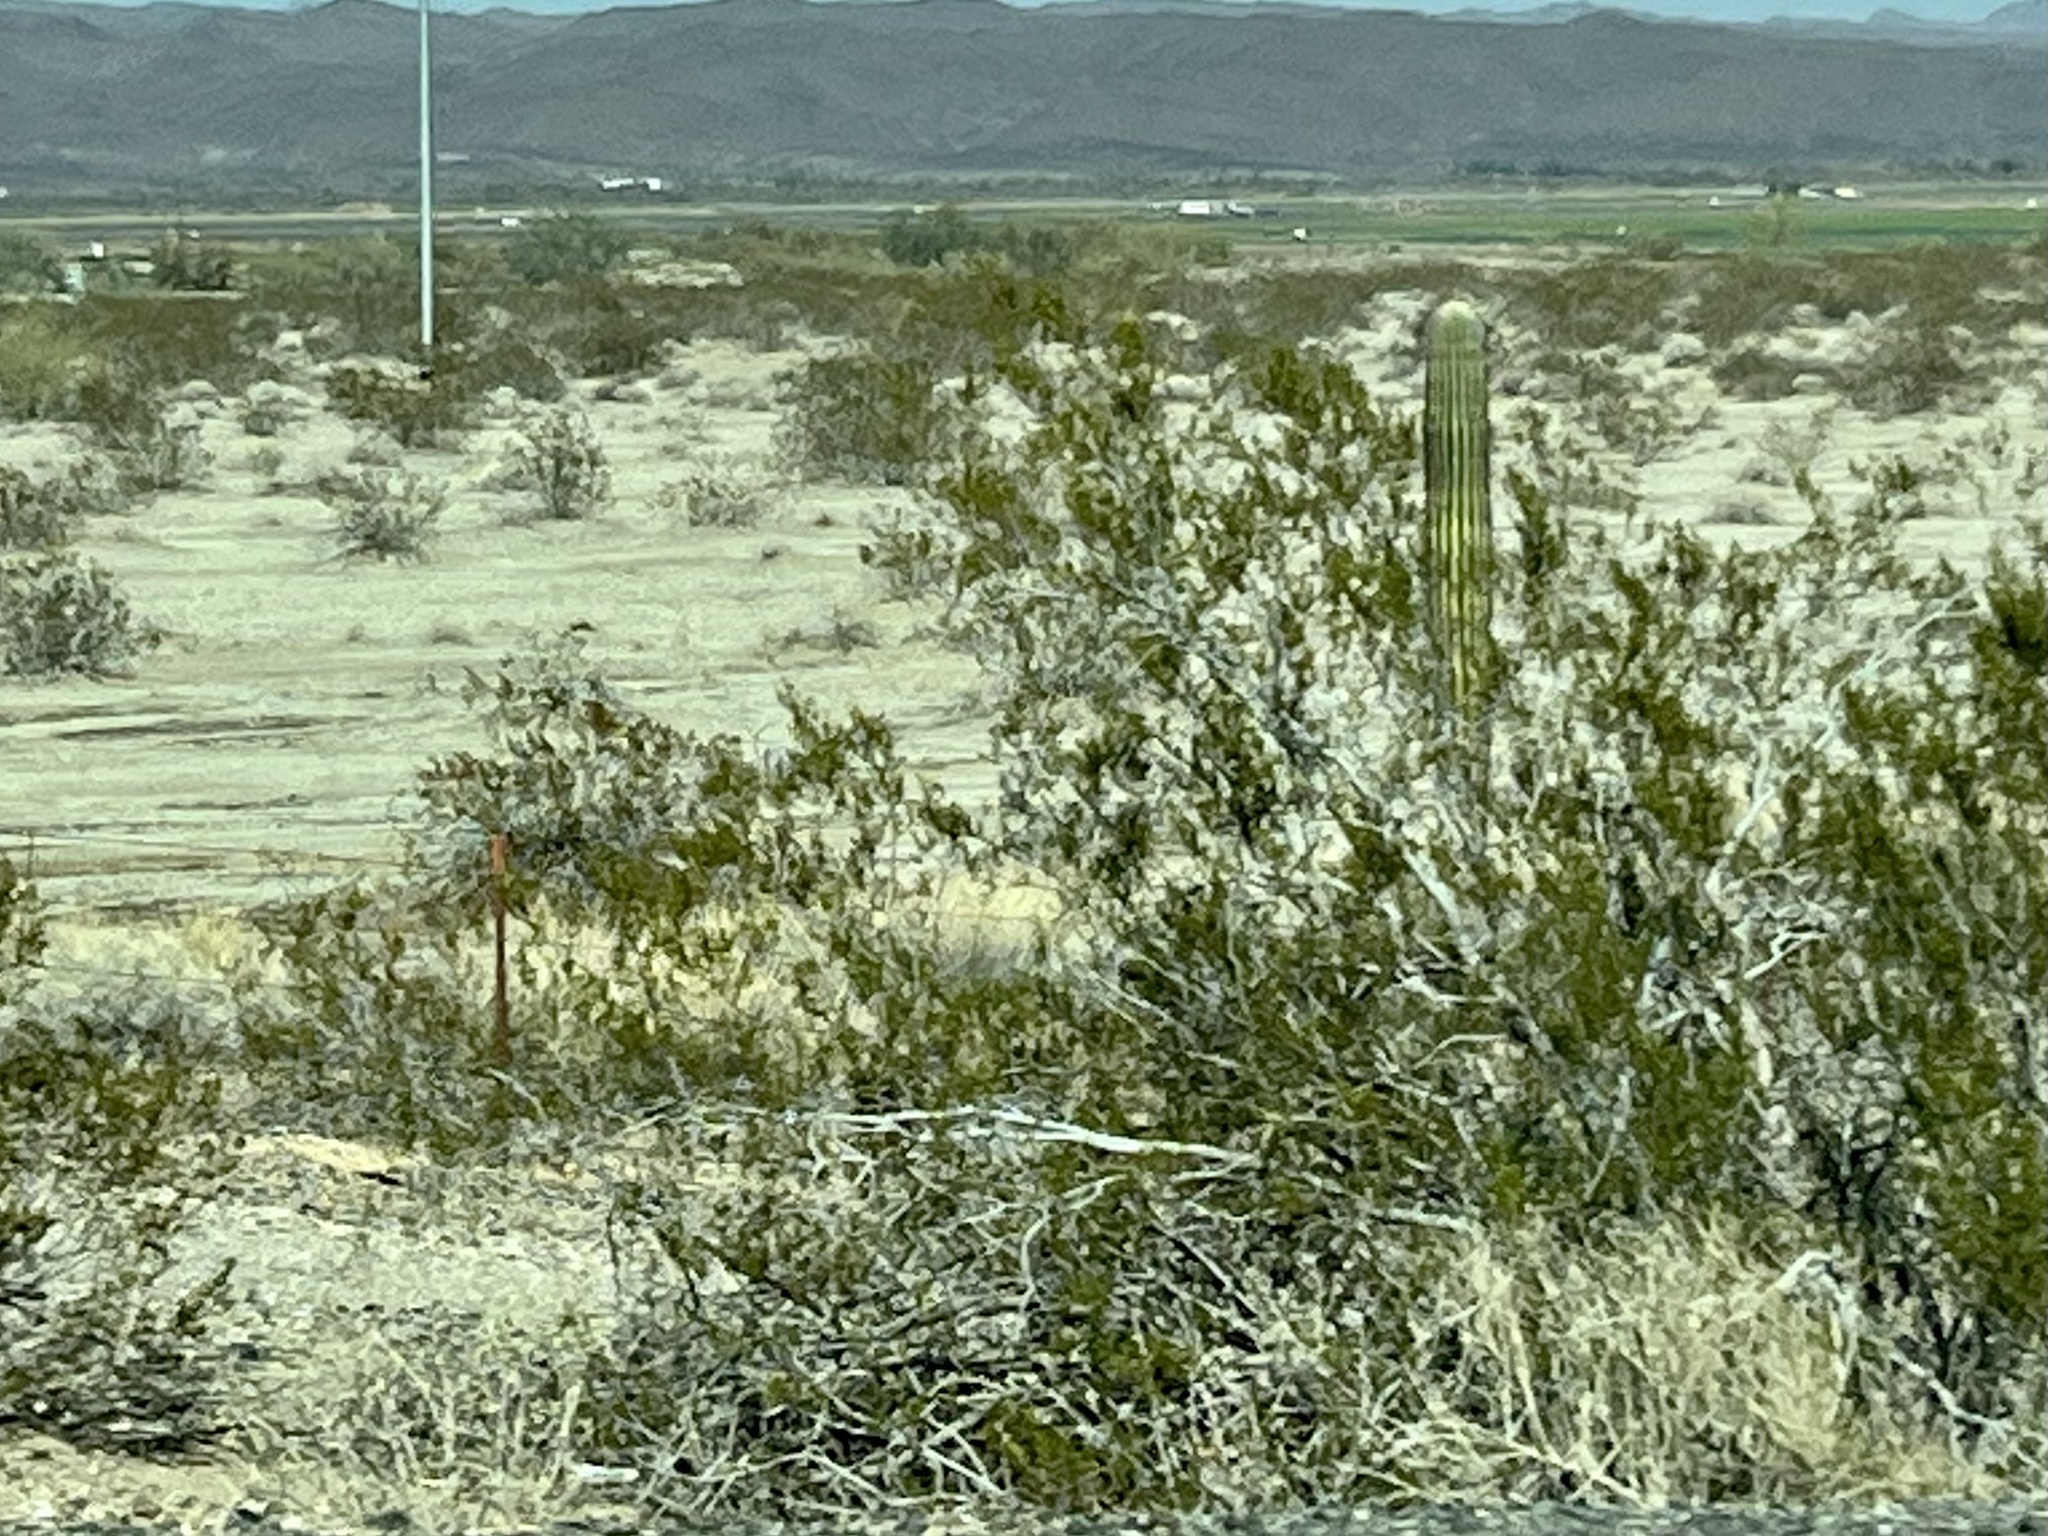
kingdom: Plantae
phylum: Tracheophyta
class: Magnoliopsida
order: Zygophyllales
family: Zygophyllaceae
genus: Larrea
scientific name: Larrea tridentata
